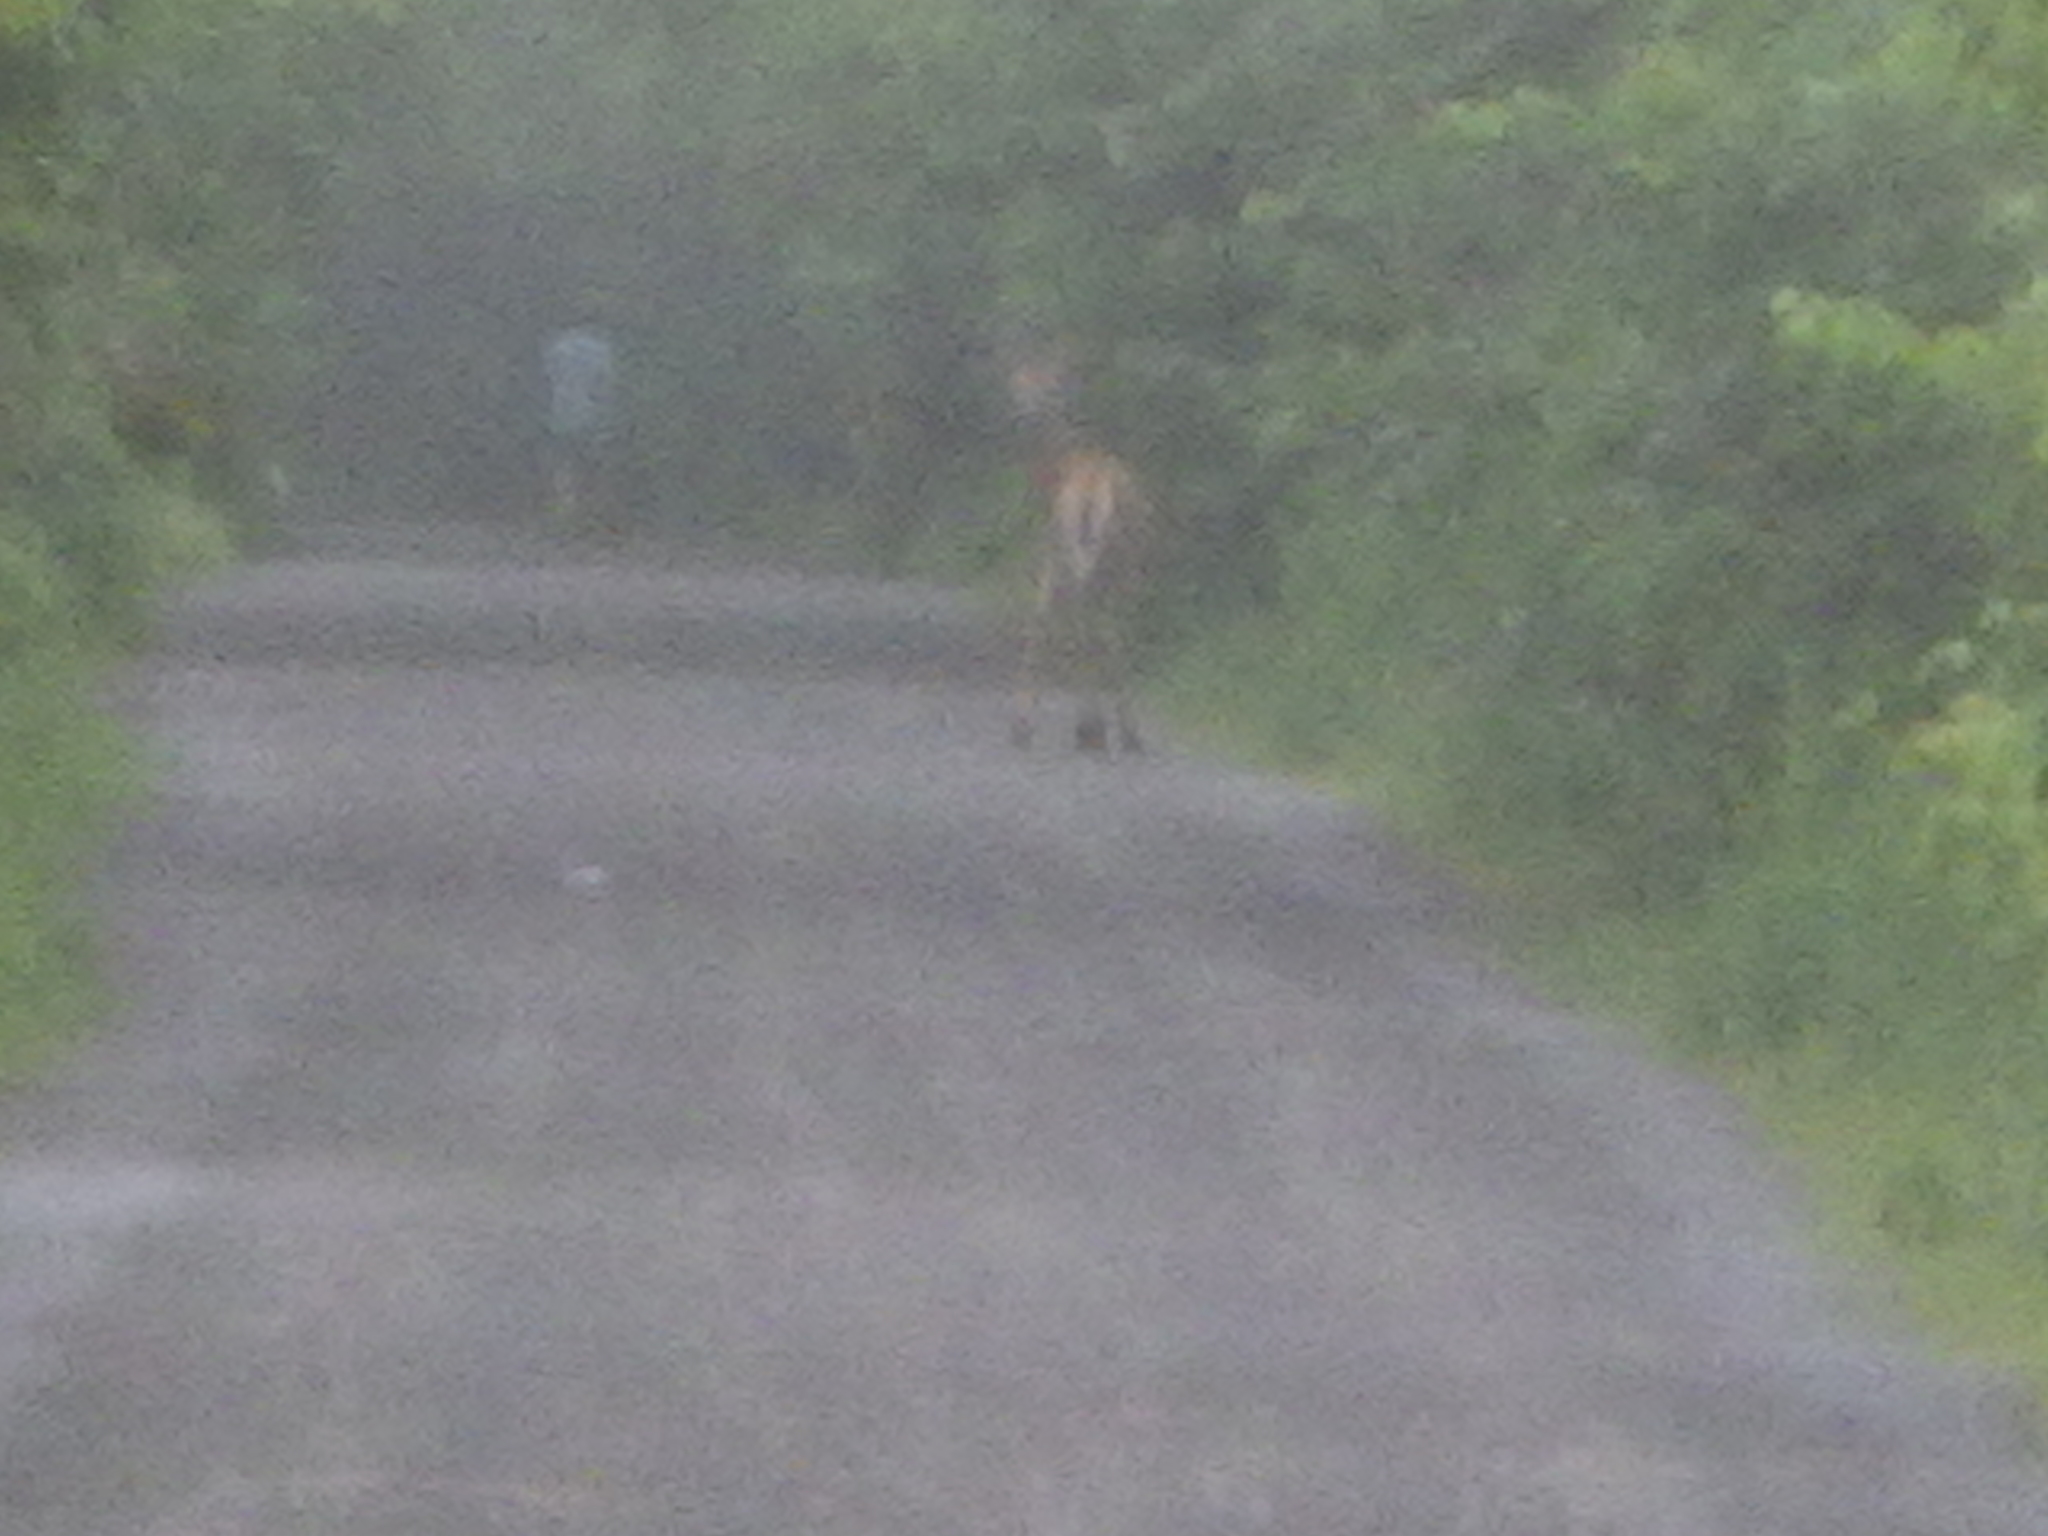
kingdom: Animalia
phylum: Chordata
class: Mammalia
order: Artiodactyla
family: Cervidae
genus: Odocoileus
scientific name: Odocoileus virginianus
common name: White-tailed deer
